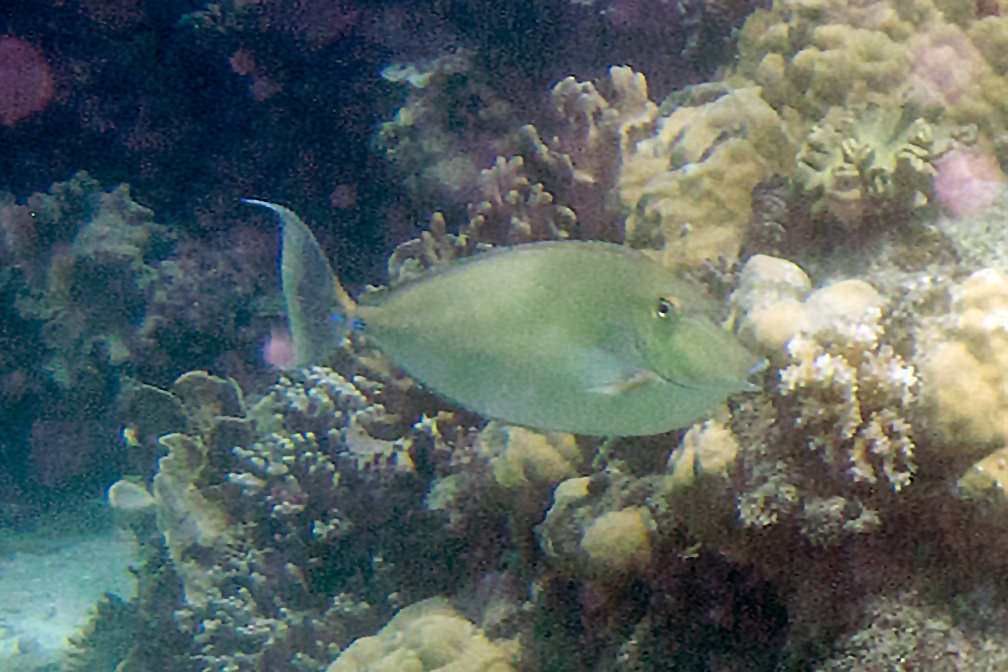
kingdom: Animalia
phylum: Chordata
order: Perciformes
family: Acanthuridae
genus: Naso
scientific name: Naso unicornis
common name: Bluespine unicornfish
